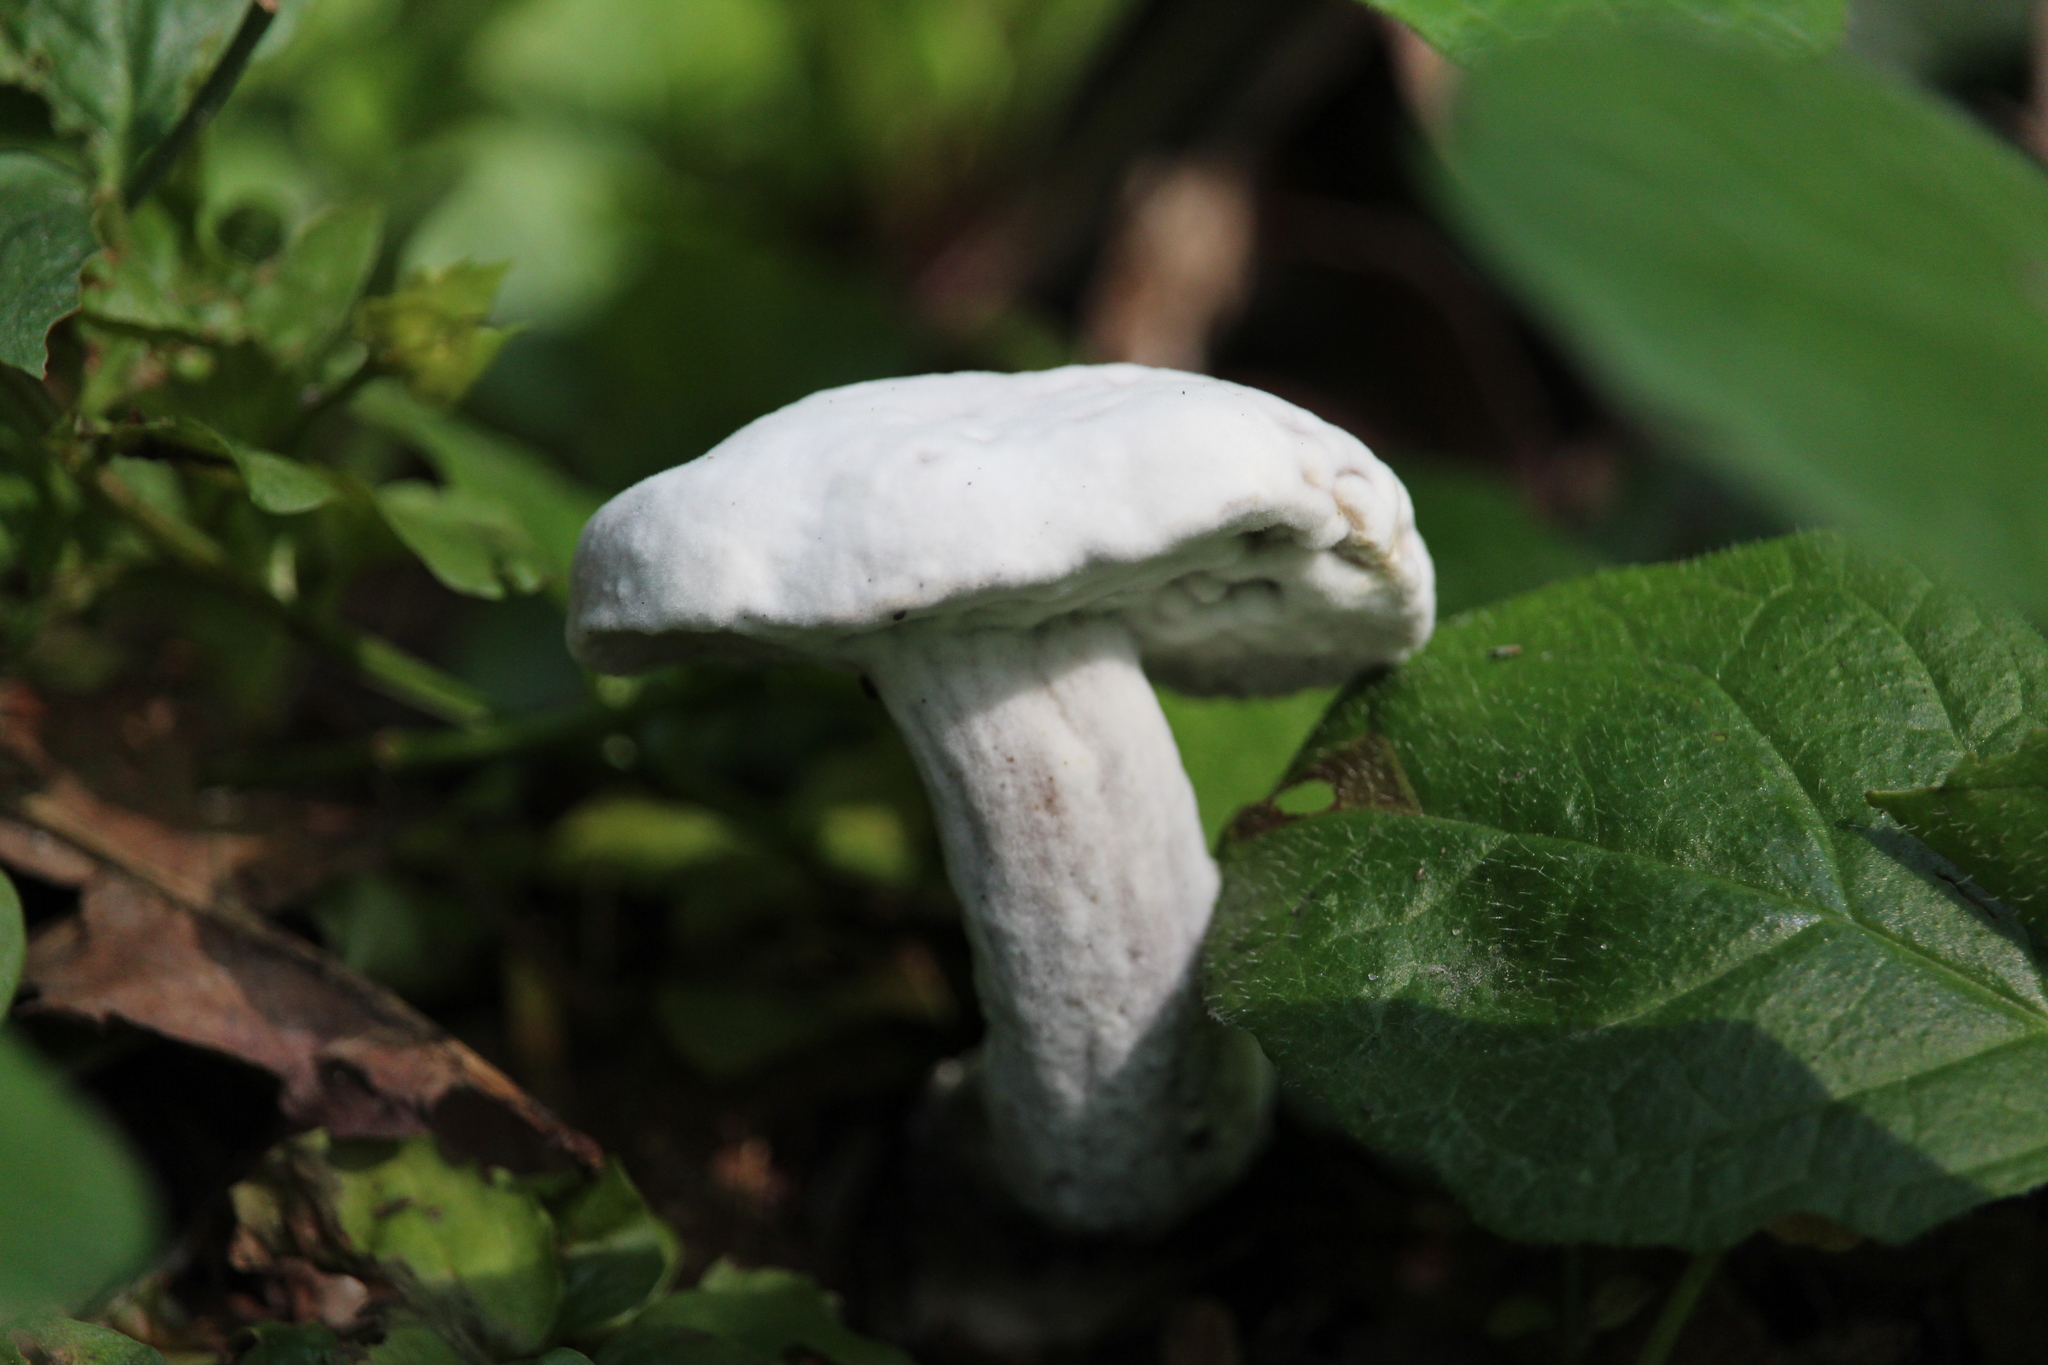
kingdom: Fungi
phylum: Ascomycota
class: Sordariomycetes
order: Hypocreales
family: Hypocreaceae
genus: Hypomyces
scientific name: Hypomyces chrysospermus
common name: Bolete mould
